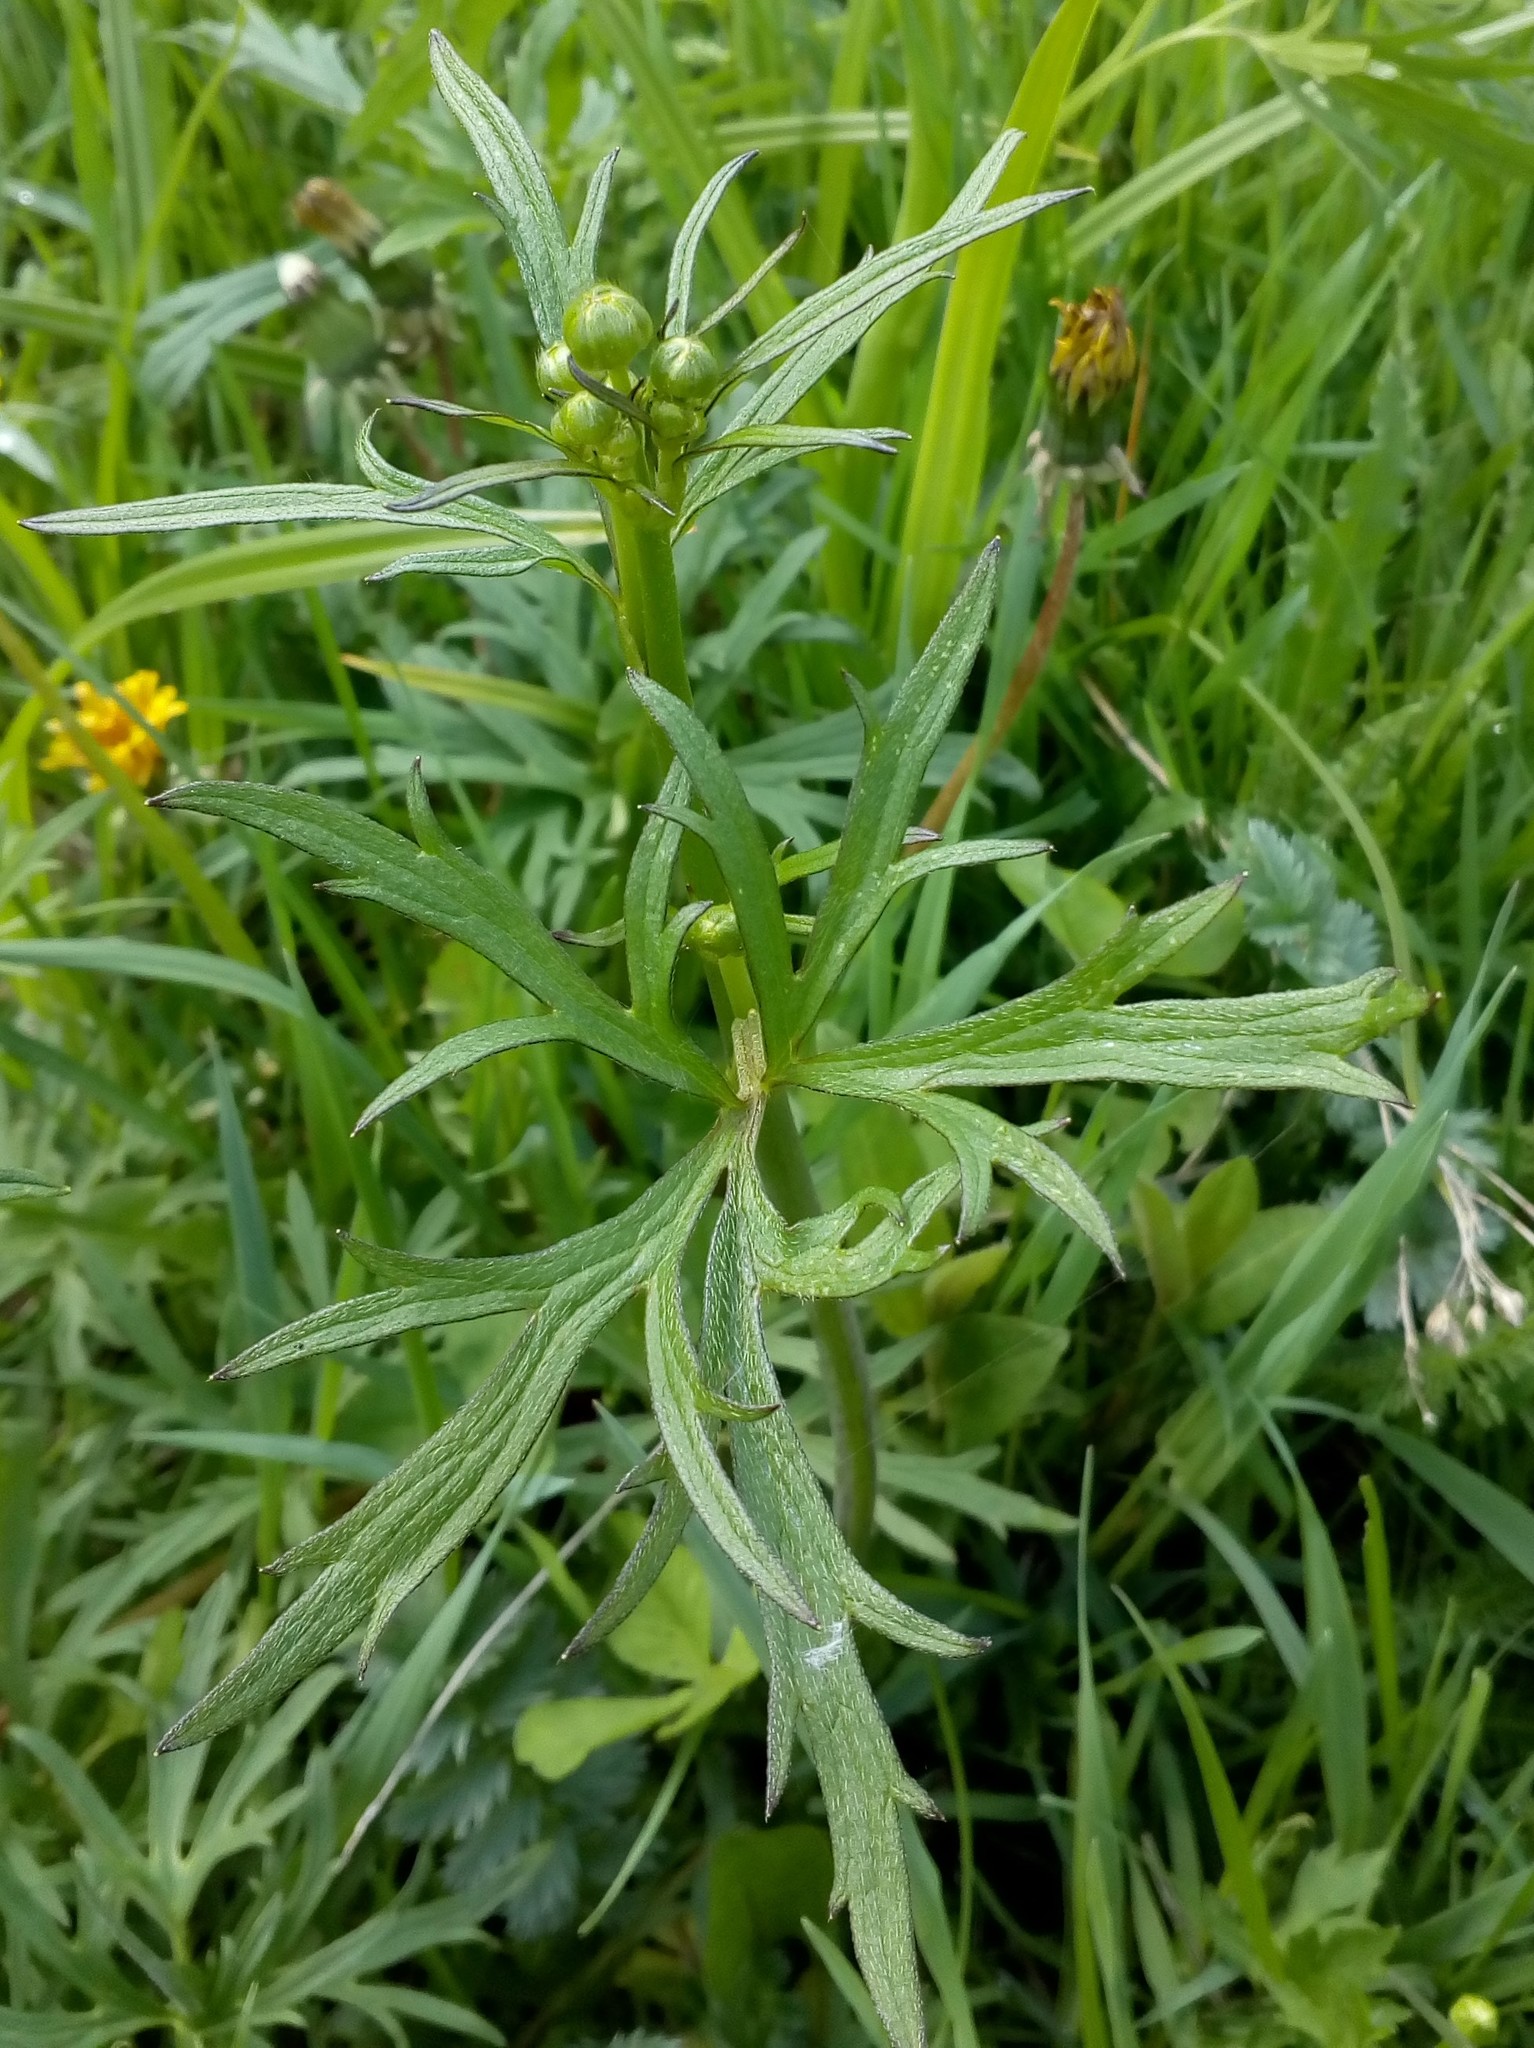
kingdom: Plantae
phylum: Tracheophyta
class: Magnoliopsida
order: Ranunculales
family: Ranunculaceae
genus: Ranunculus
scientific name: Ranunculus acris
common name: Meadow buttercup
